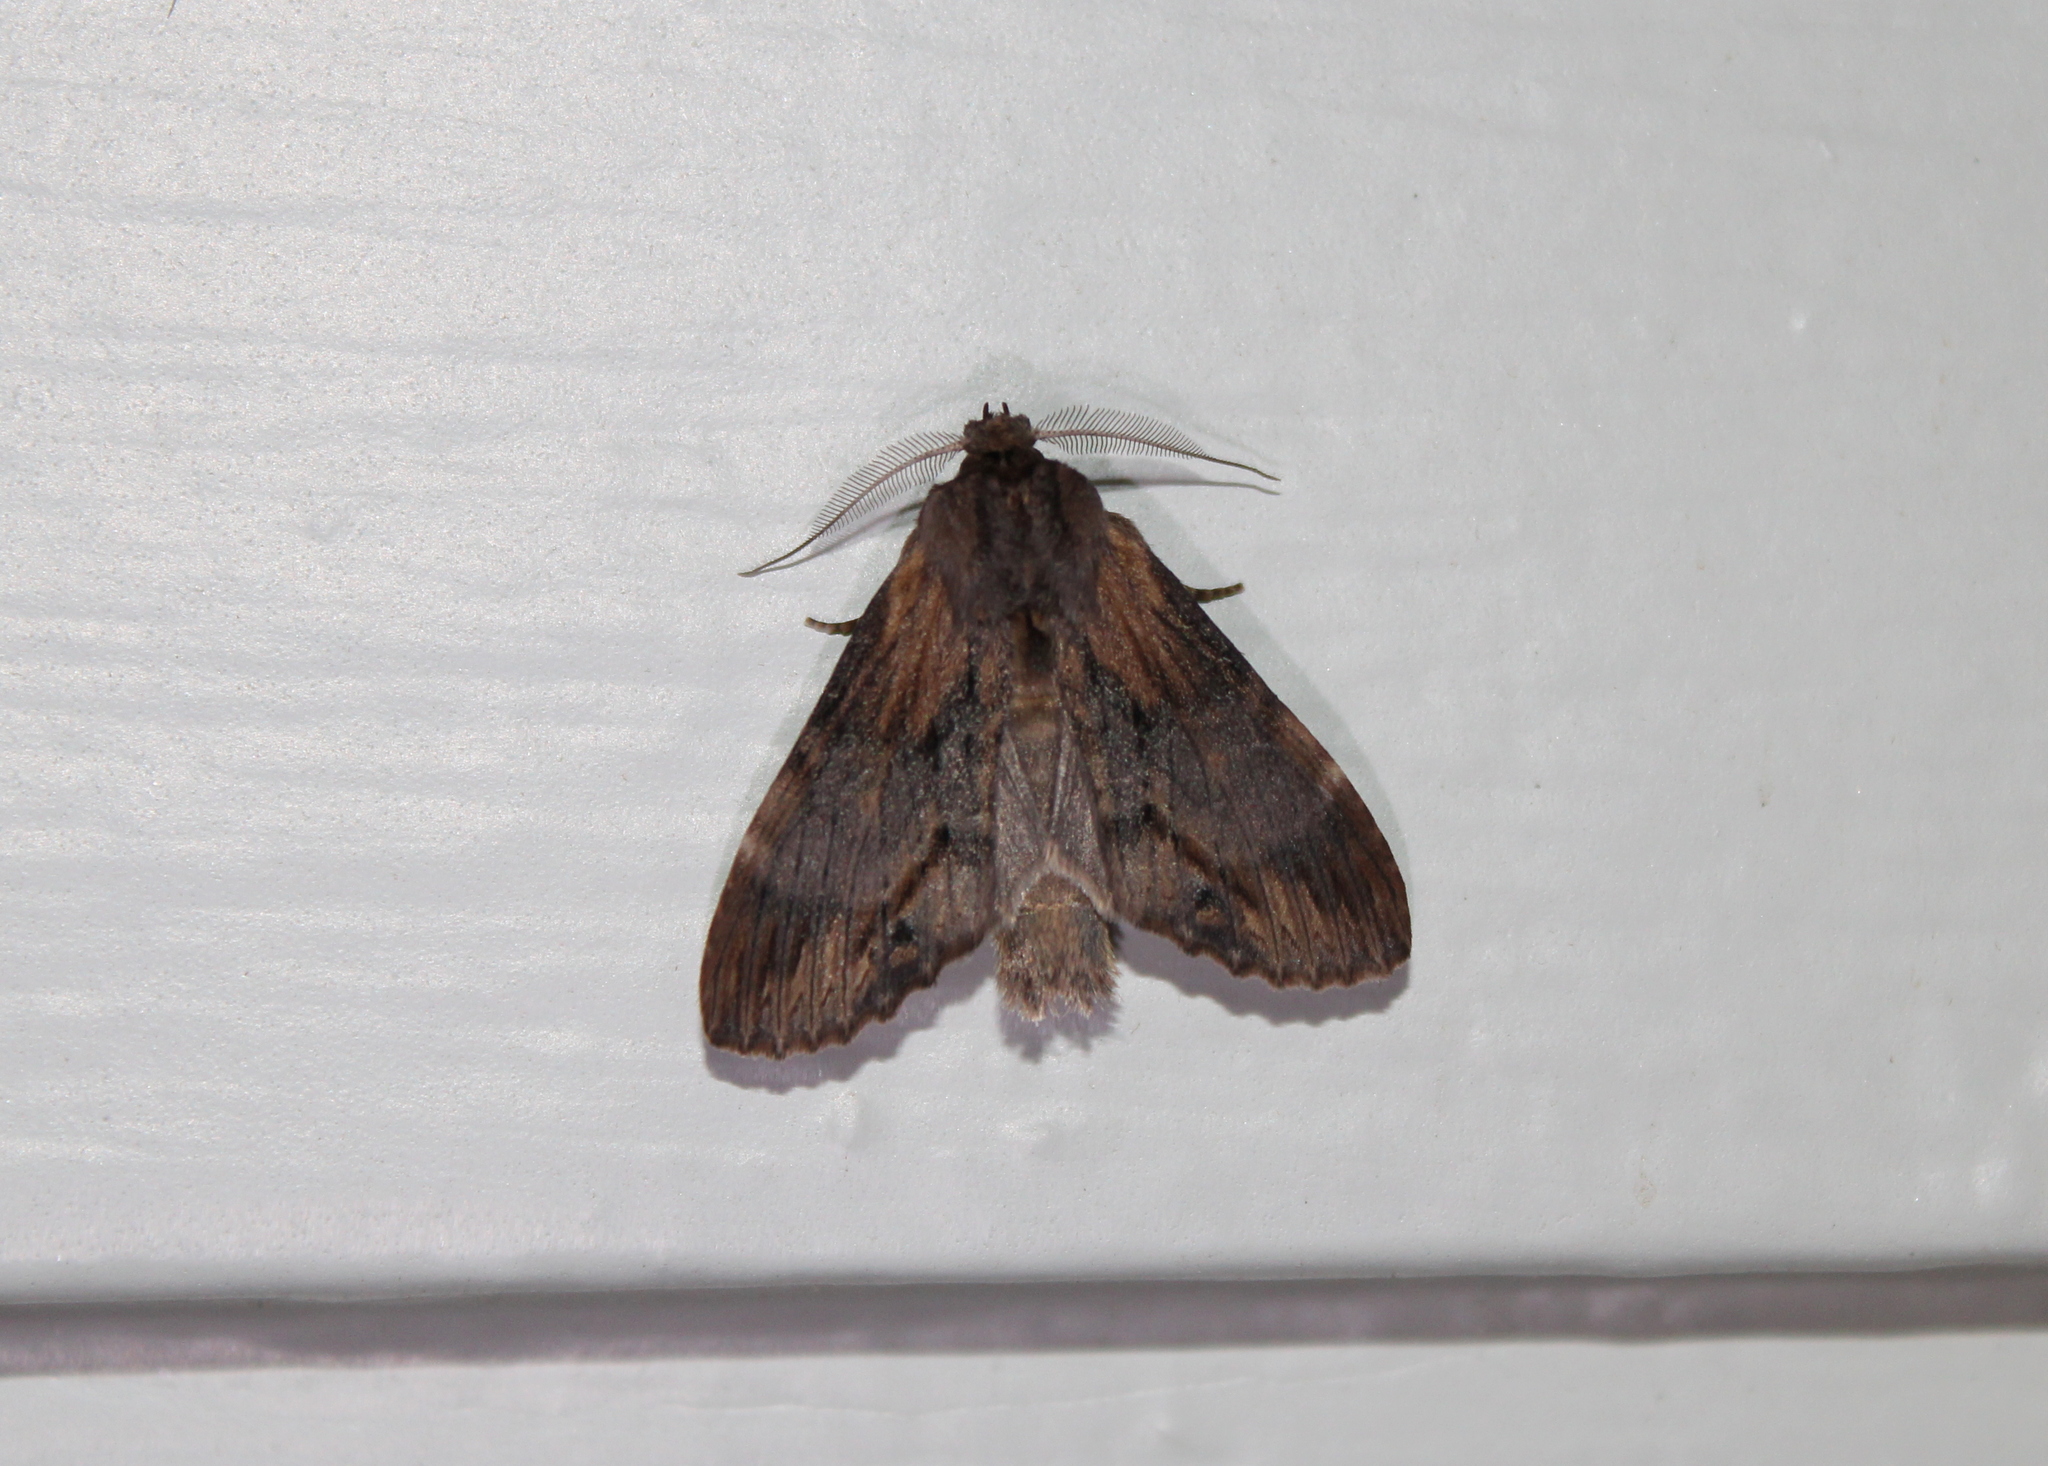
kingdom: Animalia
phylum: Arthropoda
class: Insecta
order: Lepidoptera
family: Notodontidae
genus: Dasylophia
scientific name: Dasylophia thyatiroides
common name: Gray-patched prominent
